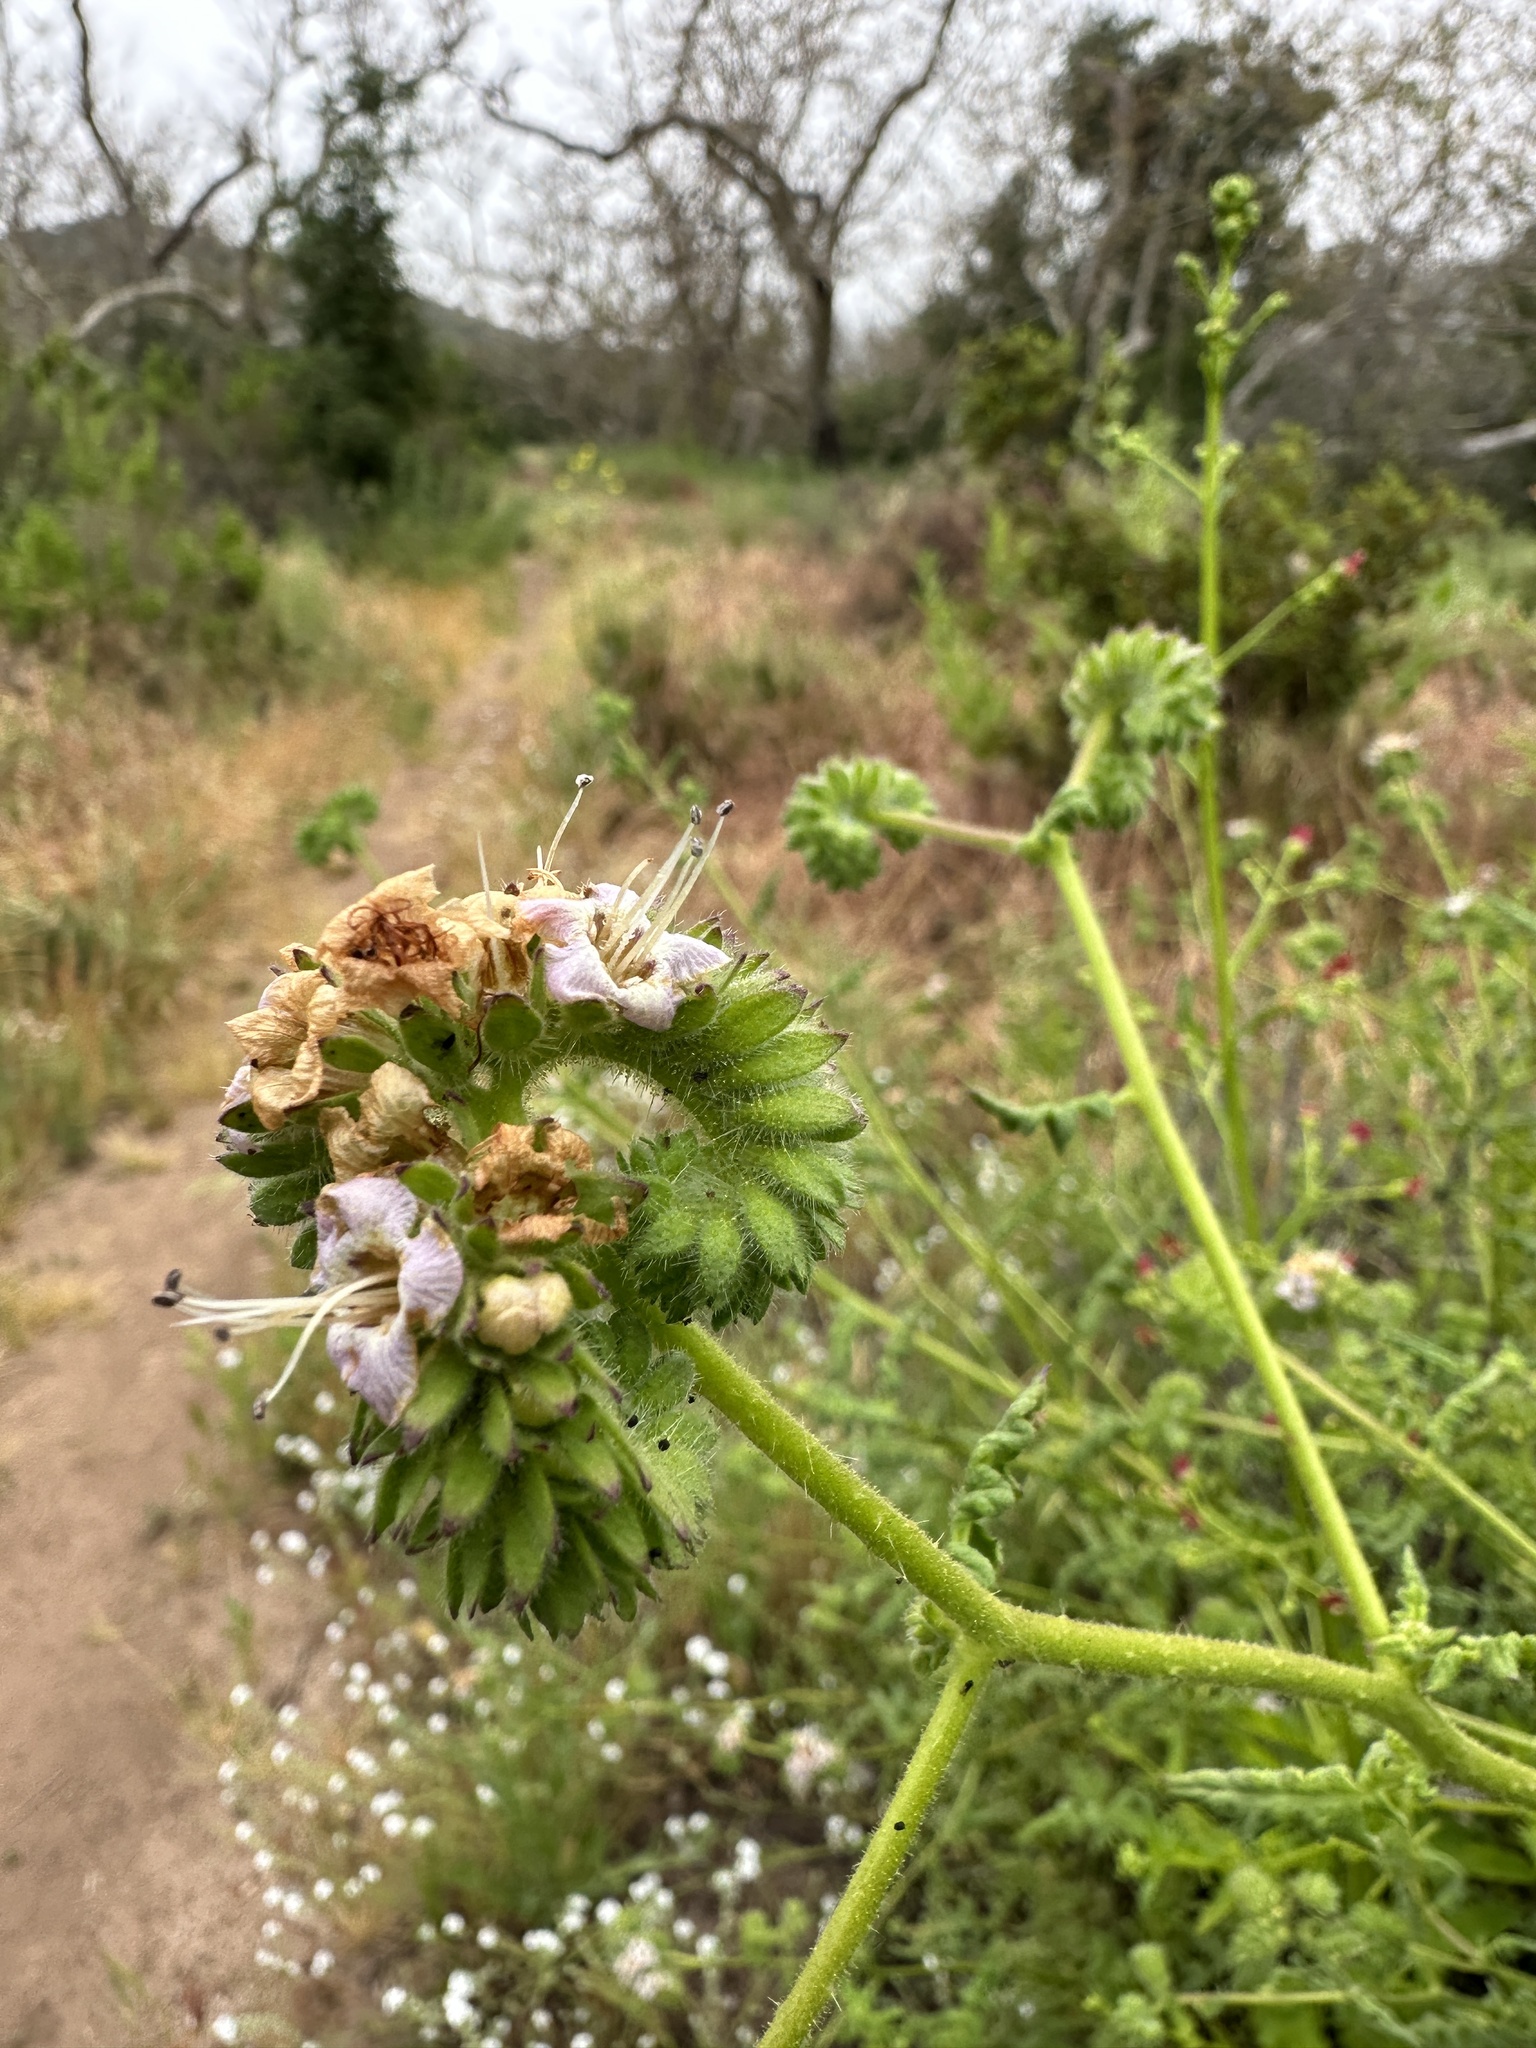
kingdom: Plantae
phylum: Tracheophyta
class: Magnoliopsida
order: Boraginales
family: Hydrophyllaceae
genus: Phacelia
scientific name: Phacelia ramosissima
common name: Branching phacelia
